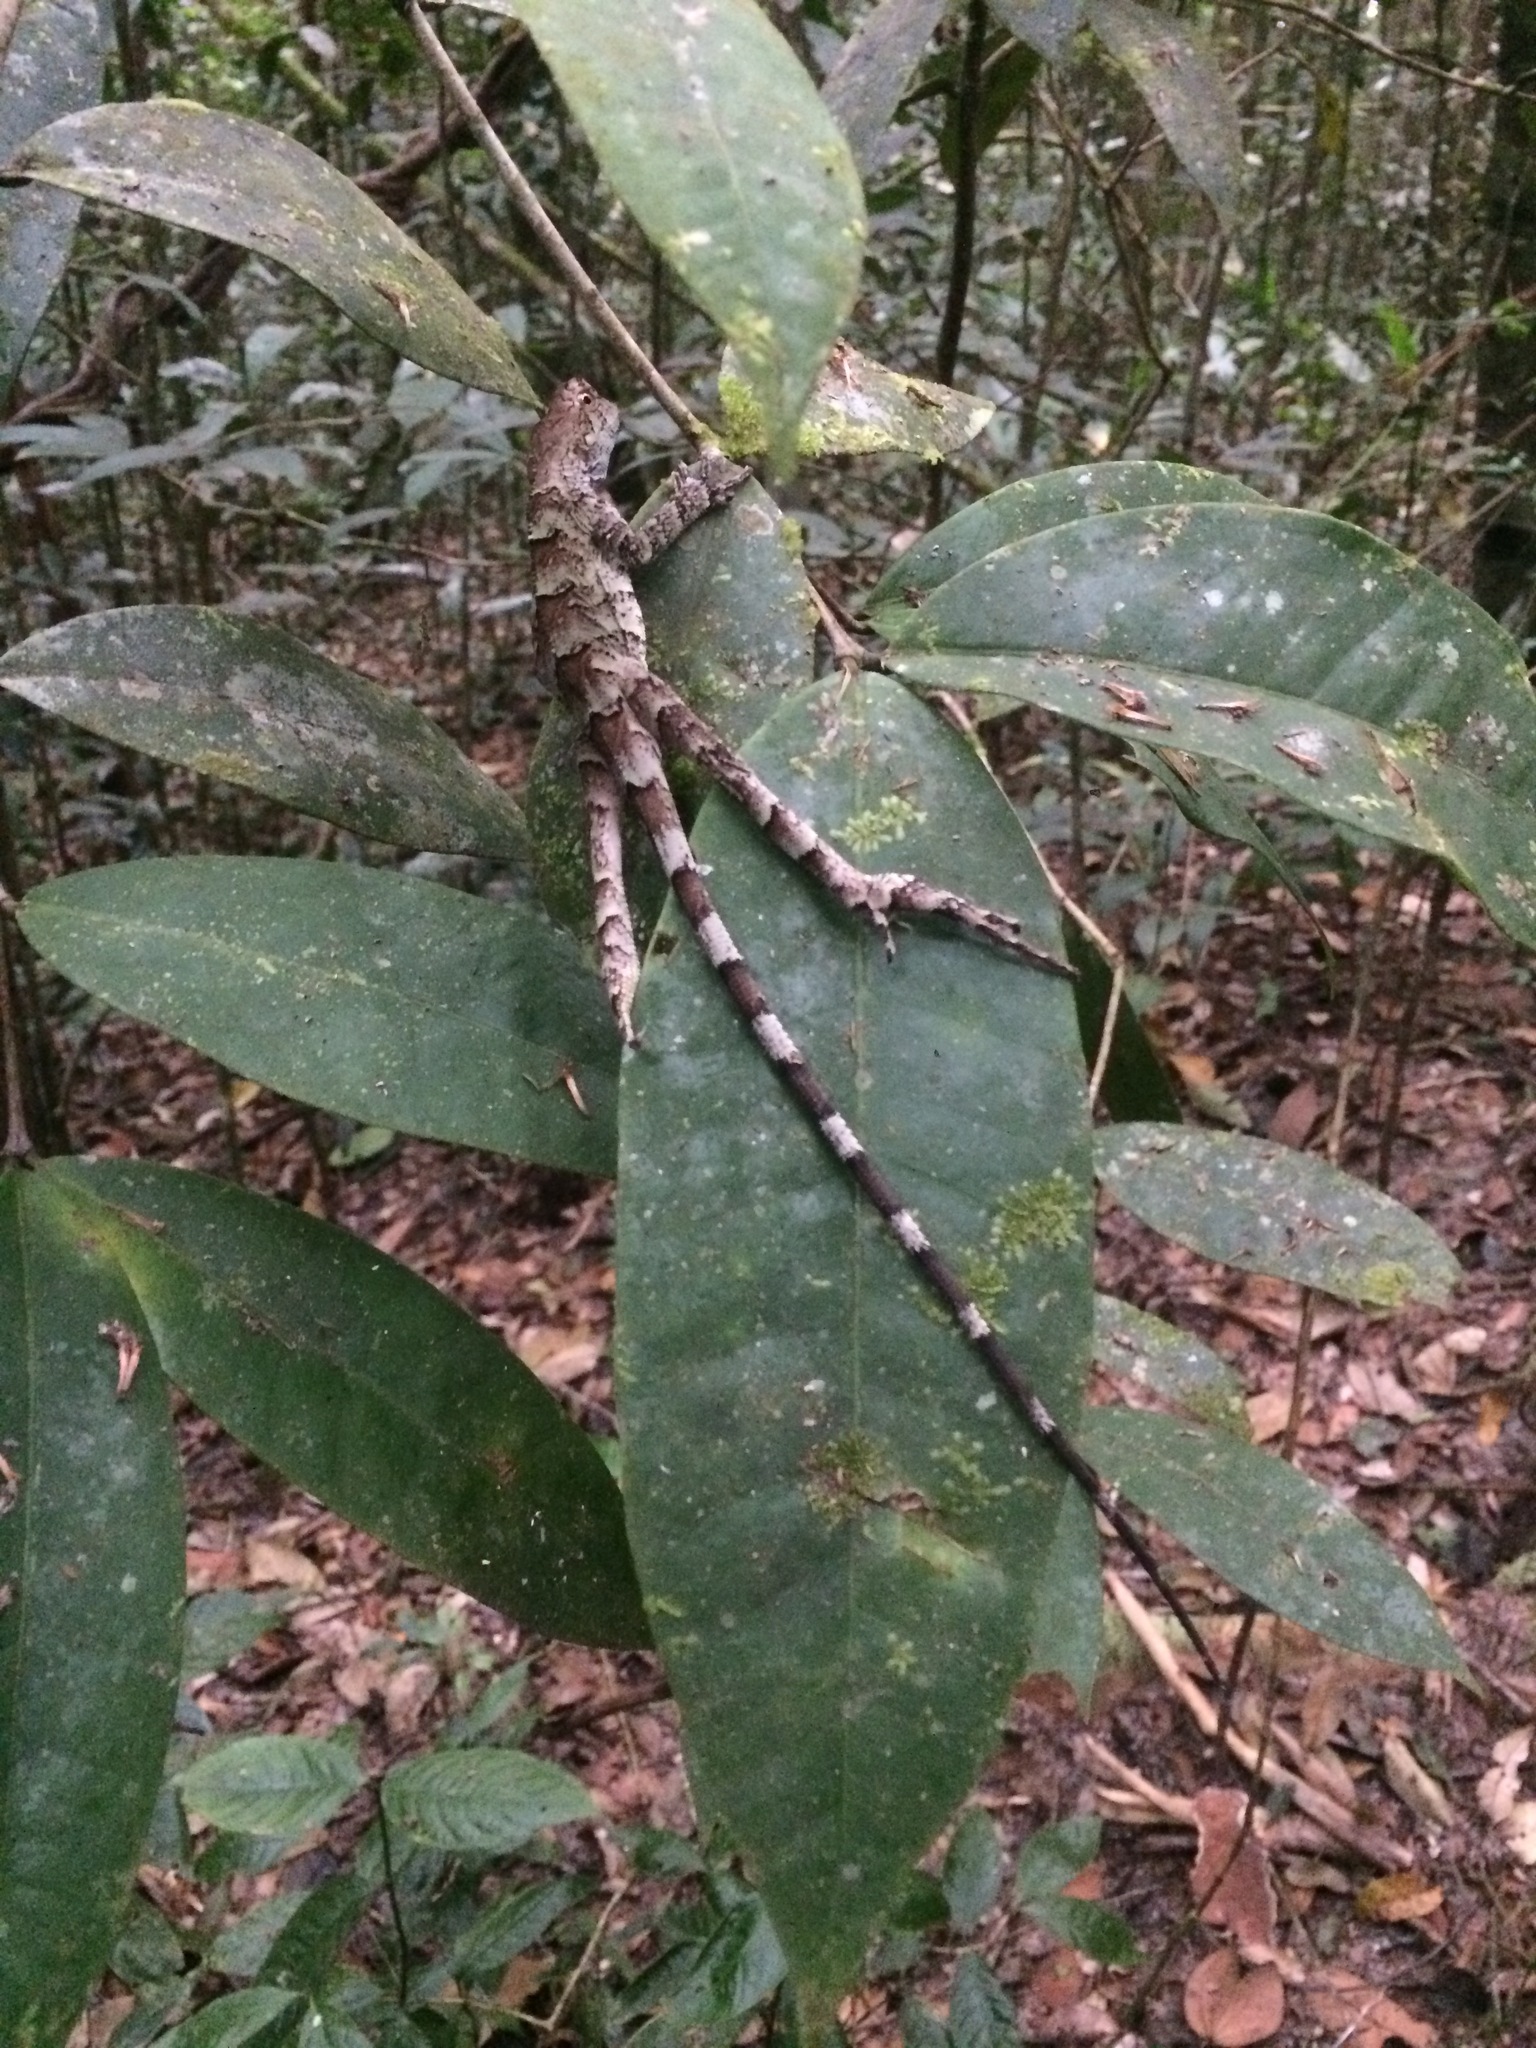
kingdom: Animalia
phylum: Chordata
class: Squamata
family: Leiosauridae
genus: Enyalius
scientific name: Enyalius catenatus
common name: Wied's fathead anole
